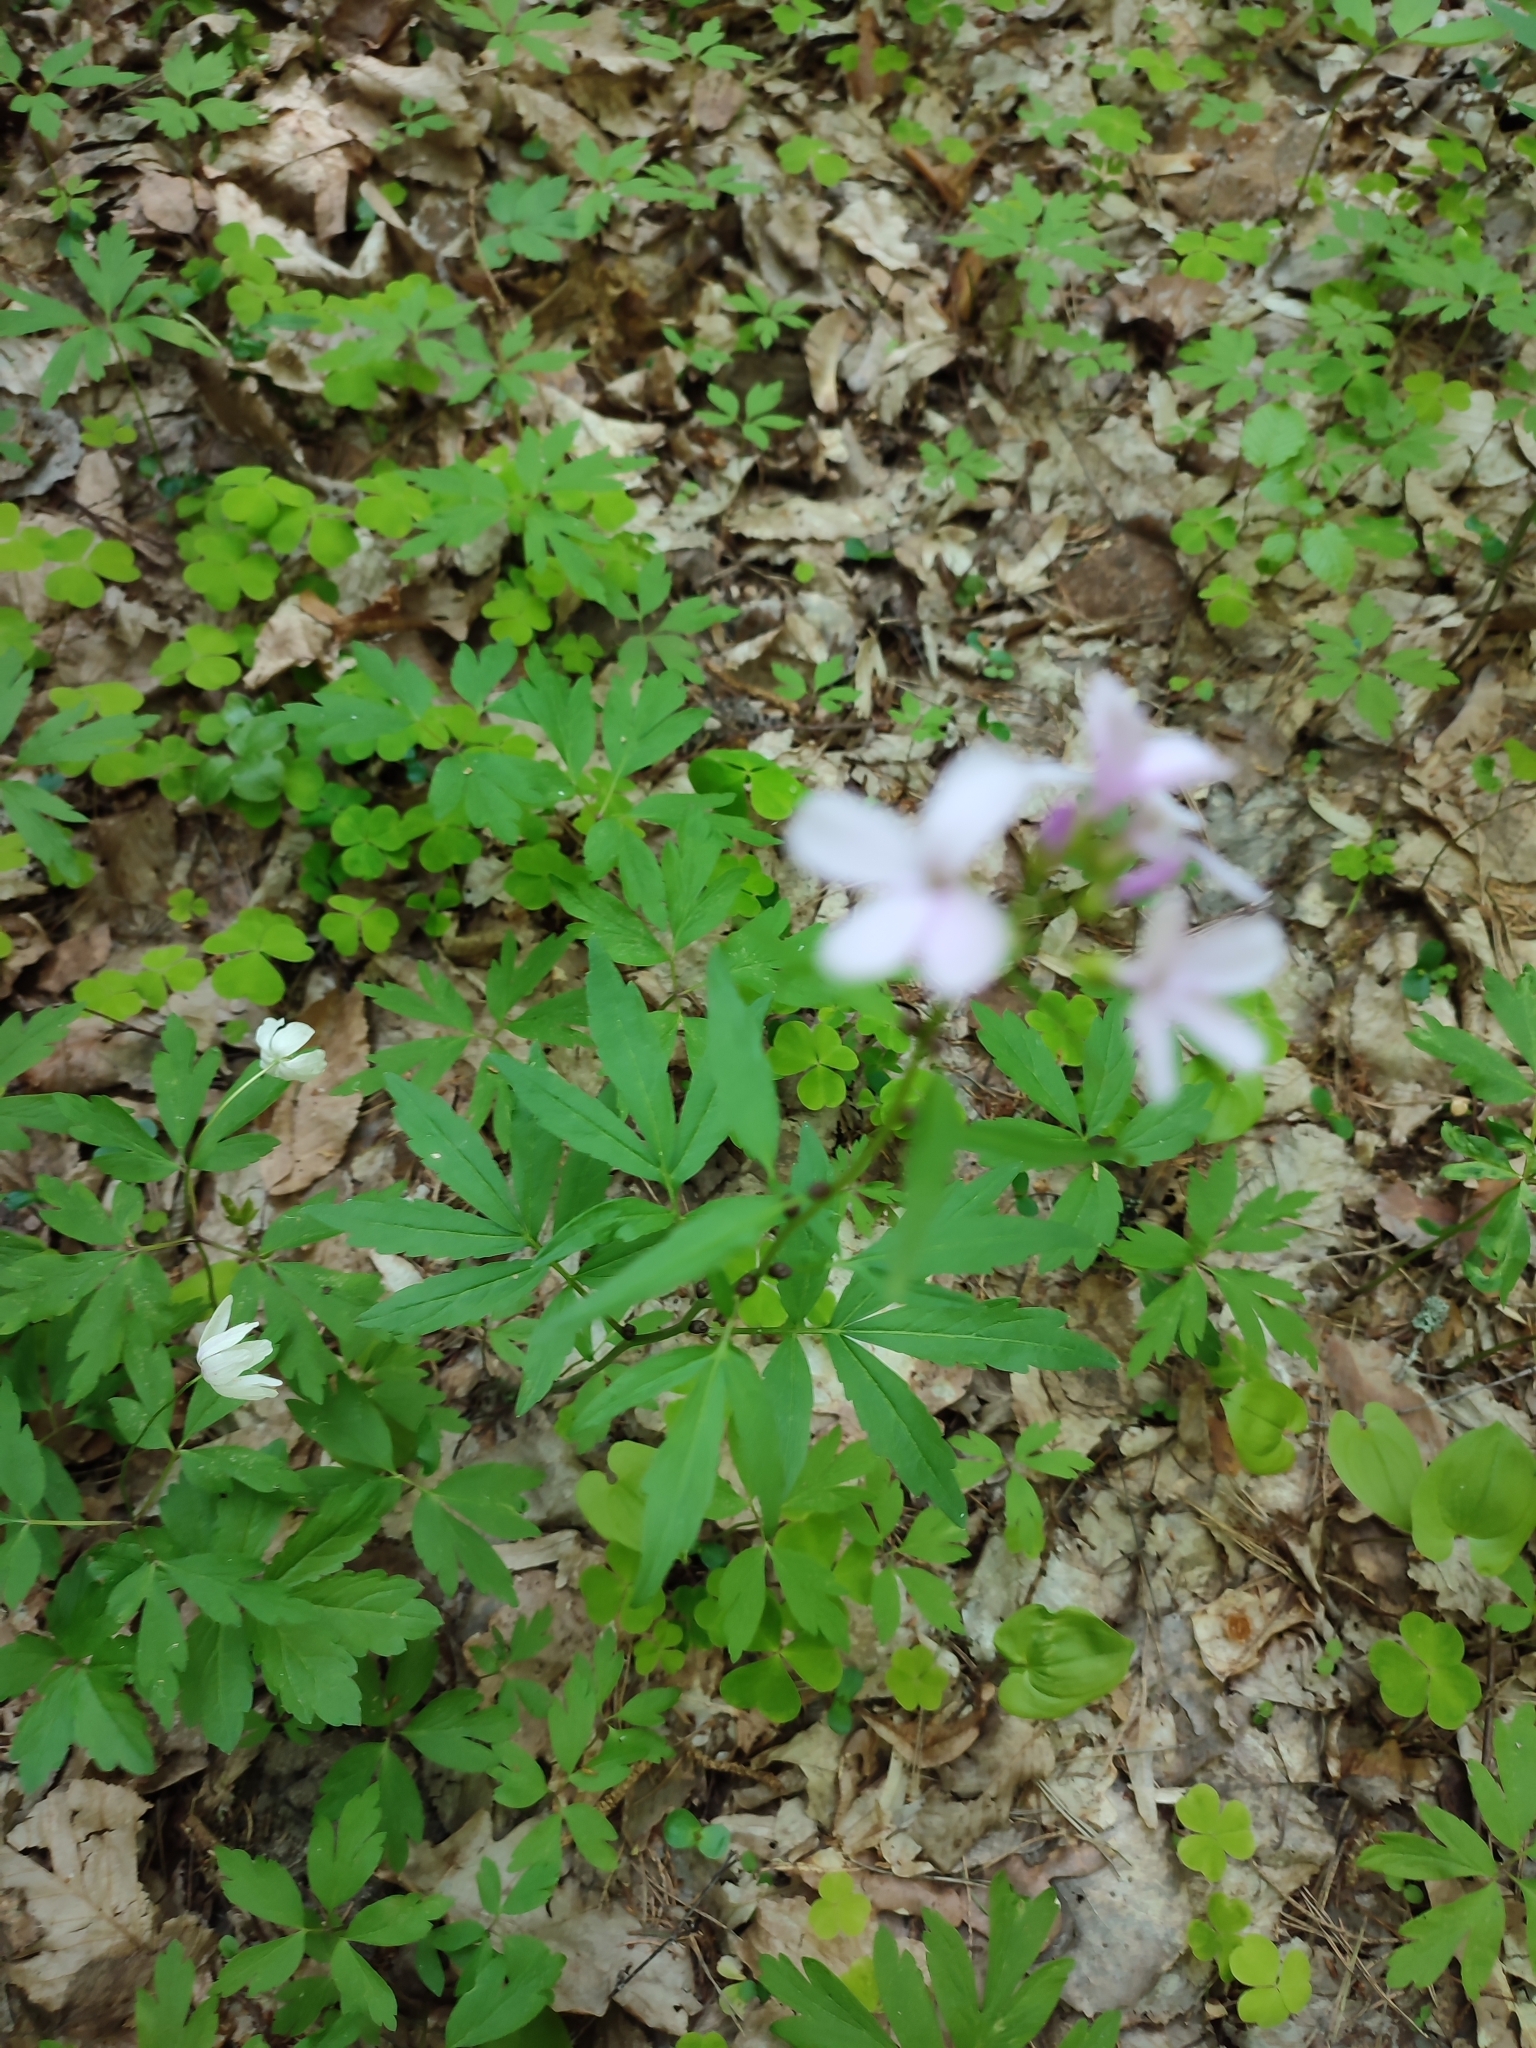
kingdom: Plantae
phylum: Tracheophyta
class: Magnoliopsida
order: Brassicales
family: Brassicaceae
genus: Cardamine
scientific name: Cardamine bulbifera
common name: Coralroot bittercress
